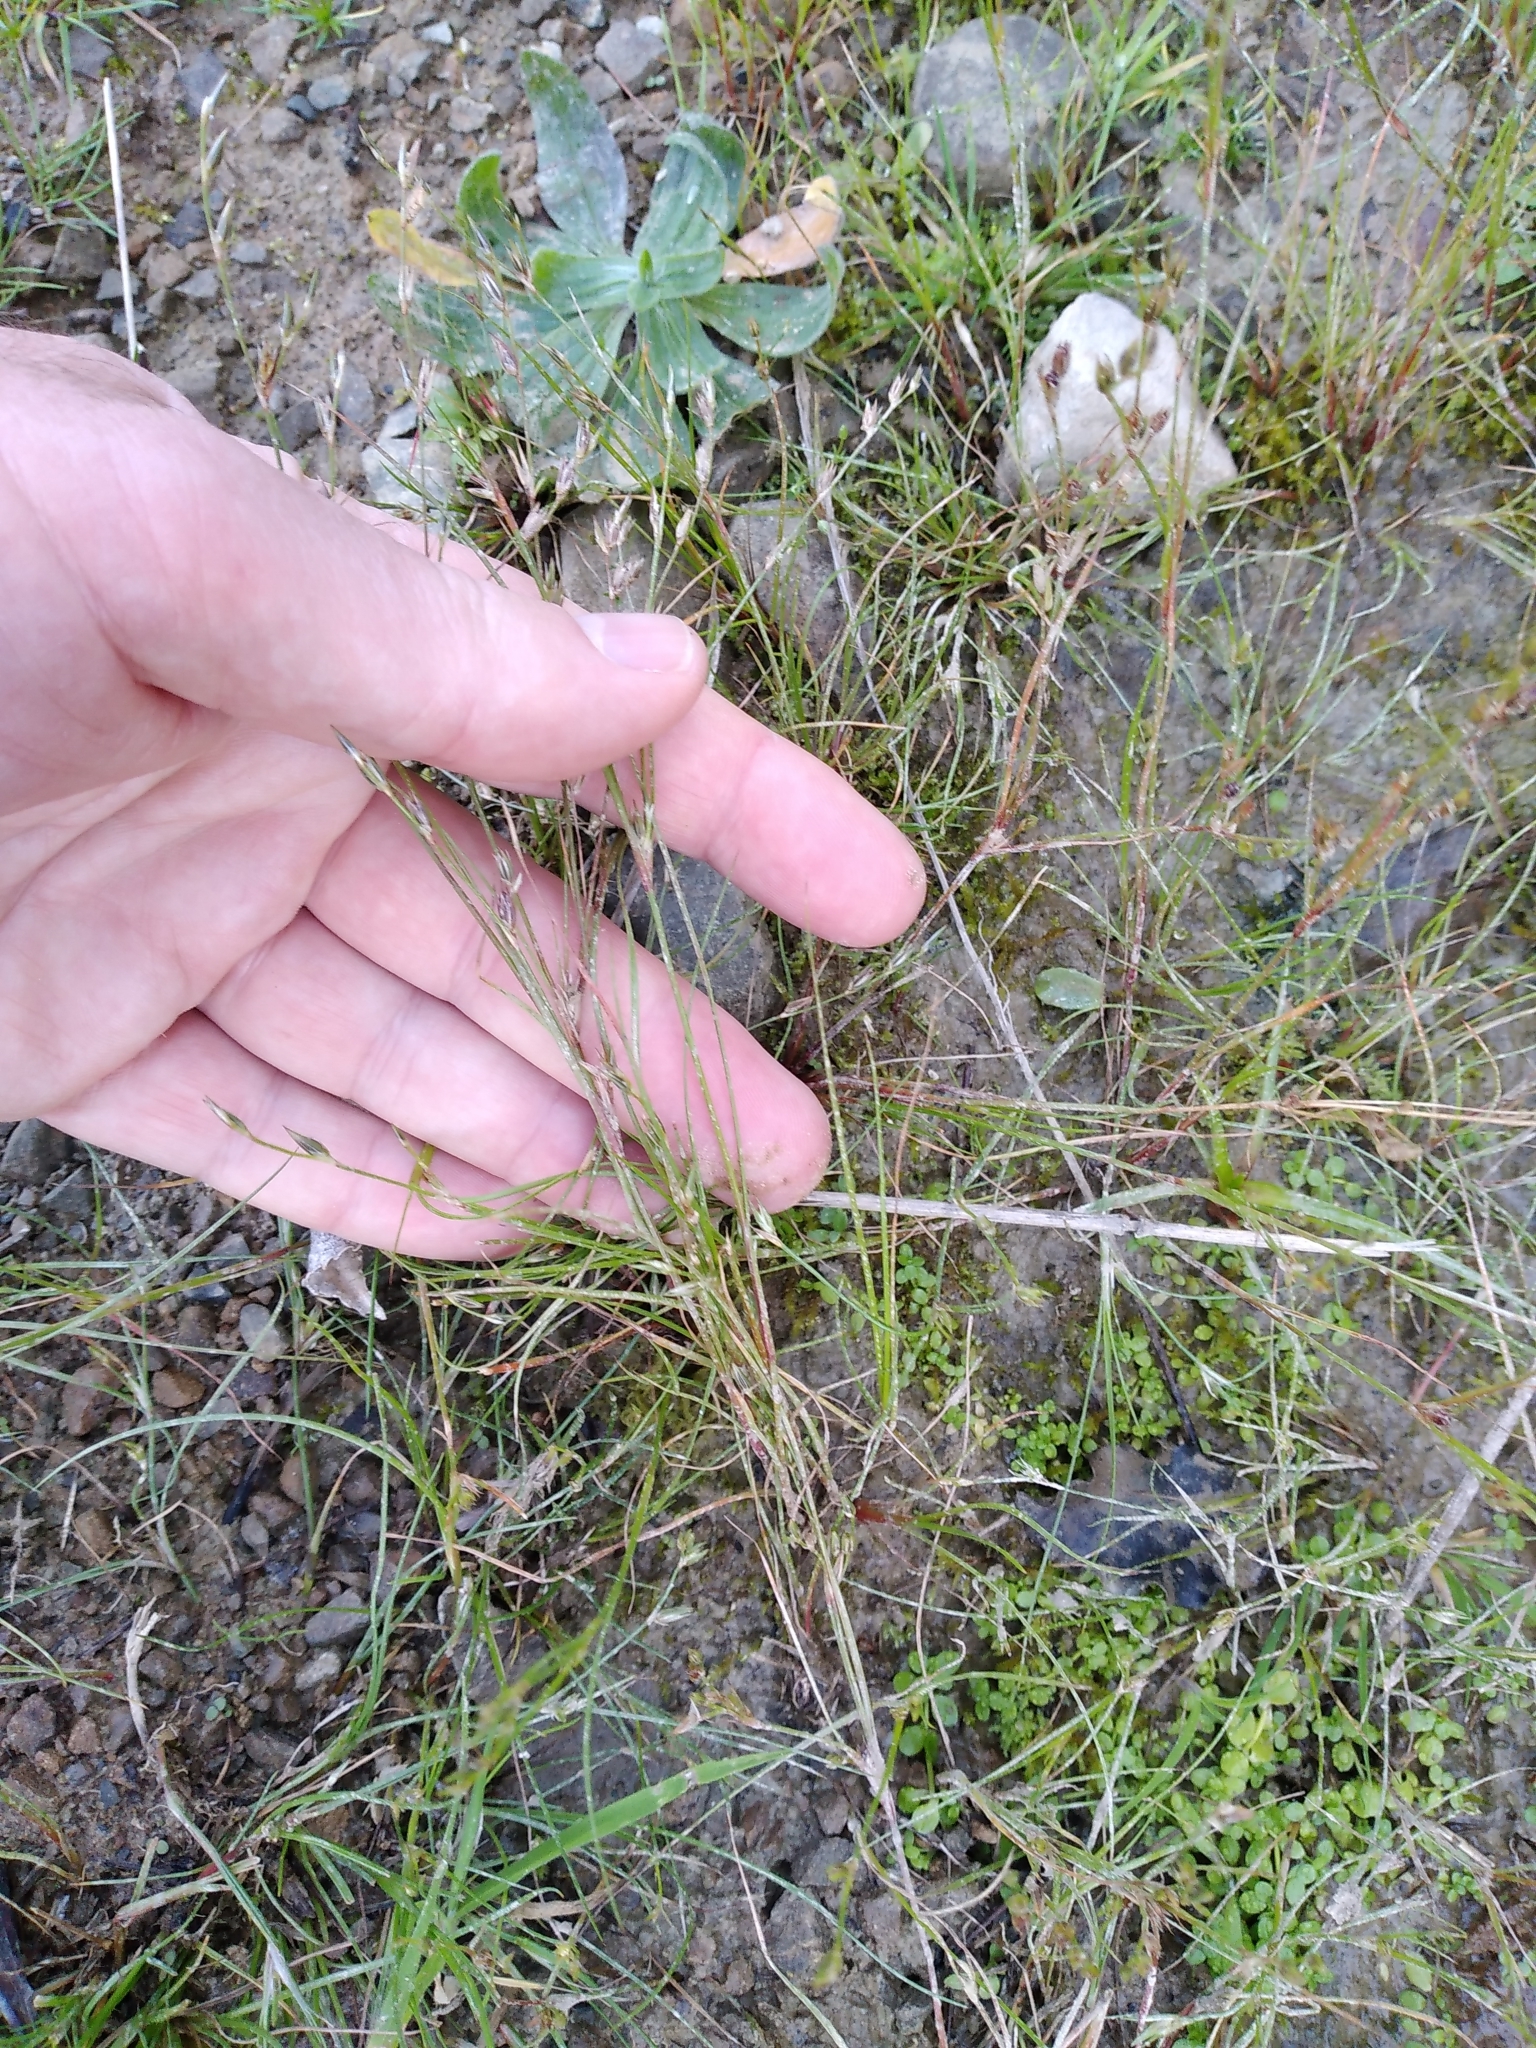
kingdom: Plantae
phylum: Tracheophyta
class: Liliopsida
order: Poales
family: Juncaceae
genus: Juncus
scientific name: Juncus bufonius
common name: Toad rush
